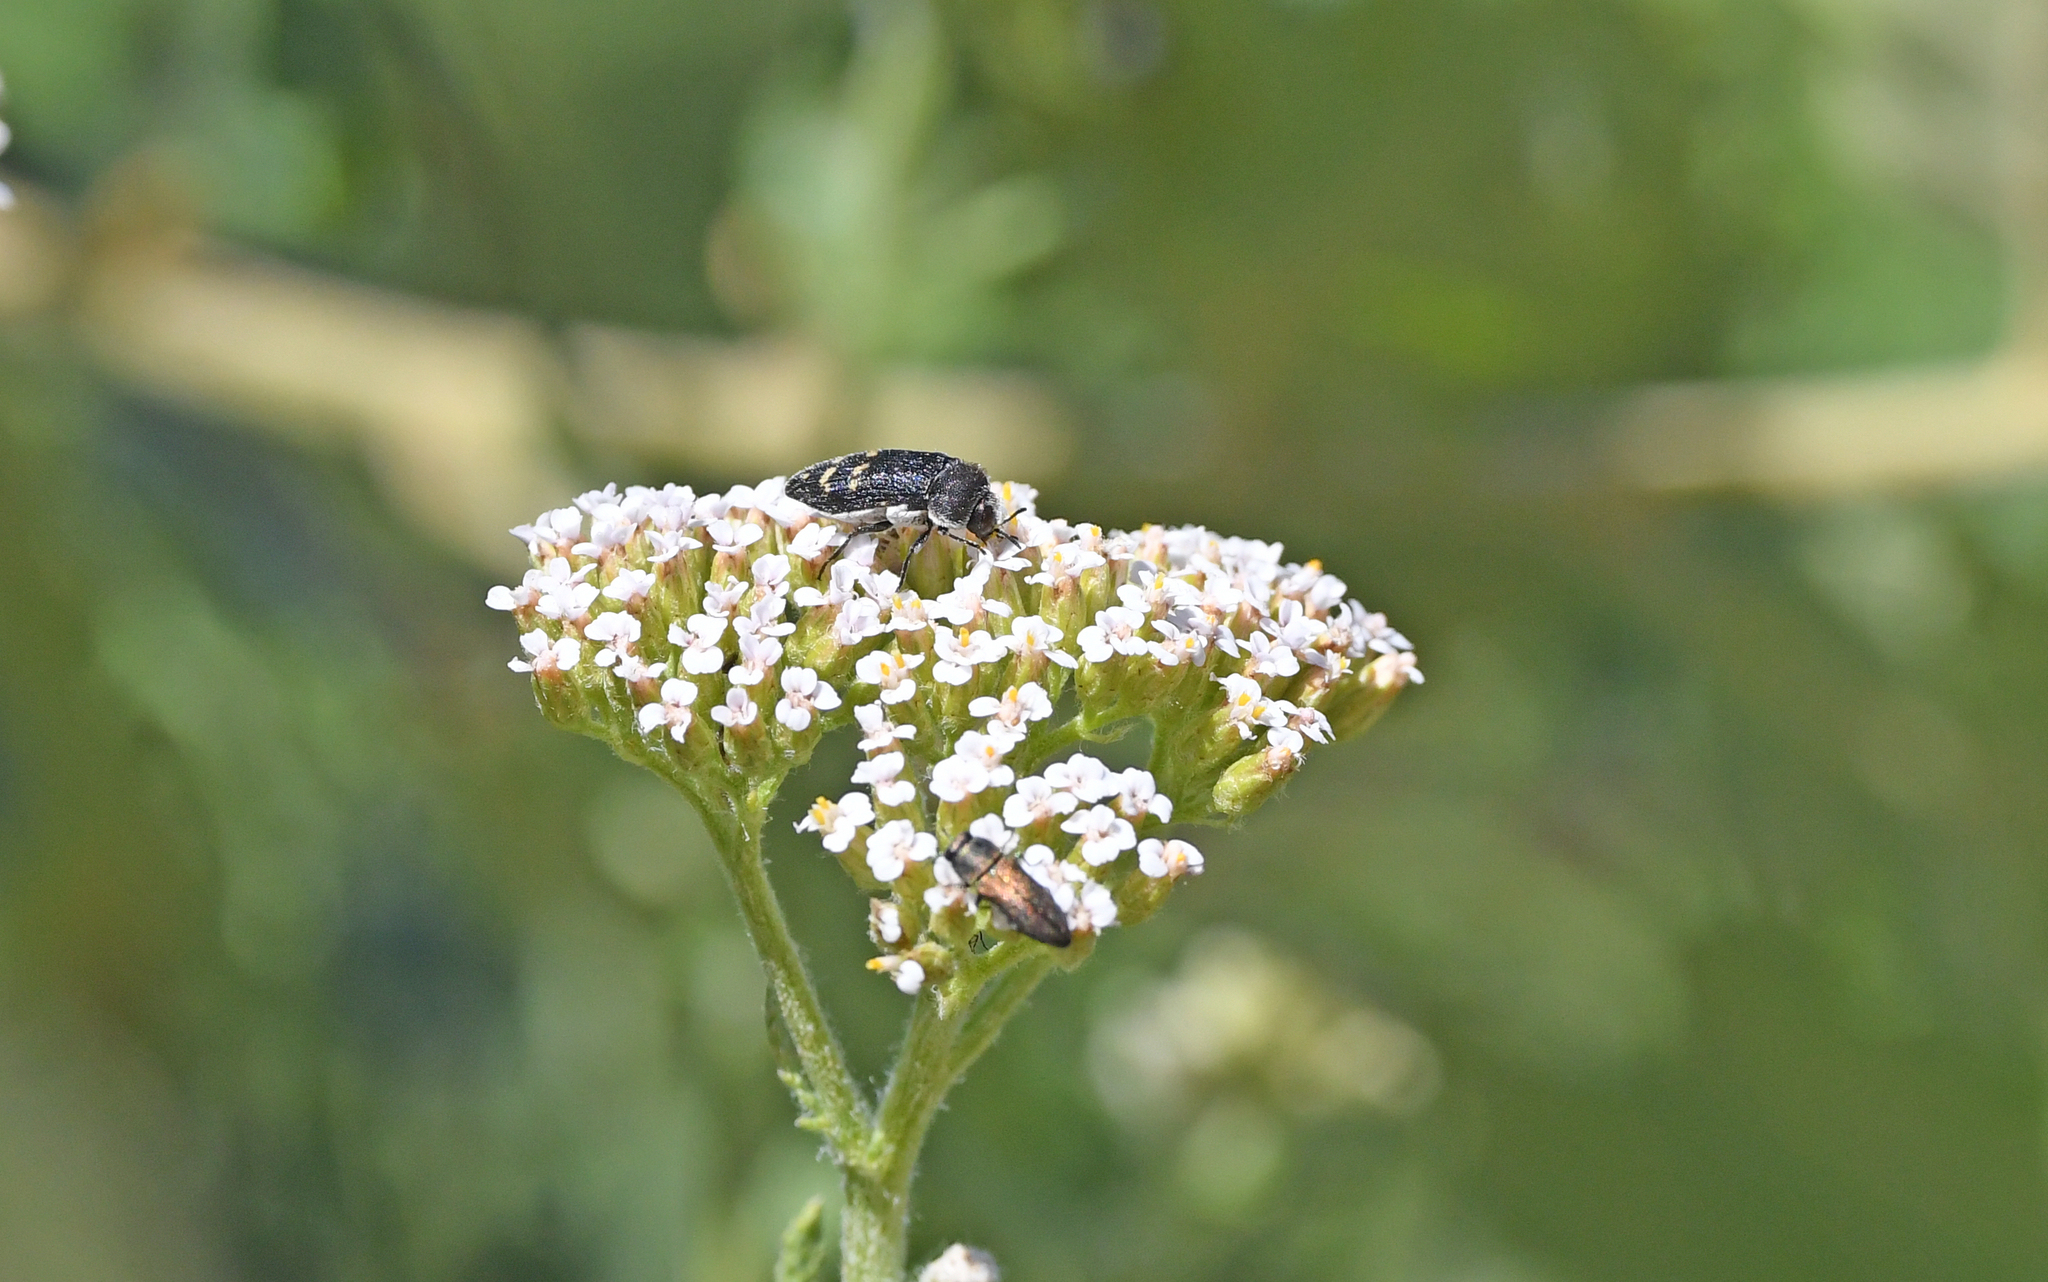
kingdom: Animalia
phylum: Arthropoda
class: Insecta
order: Coleoptera
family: Buprestidae
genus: Acmaeoderella
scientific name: Acmaeoderella flavofasciata
